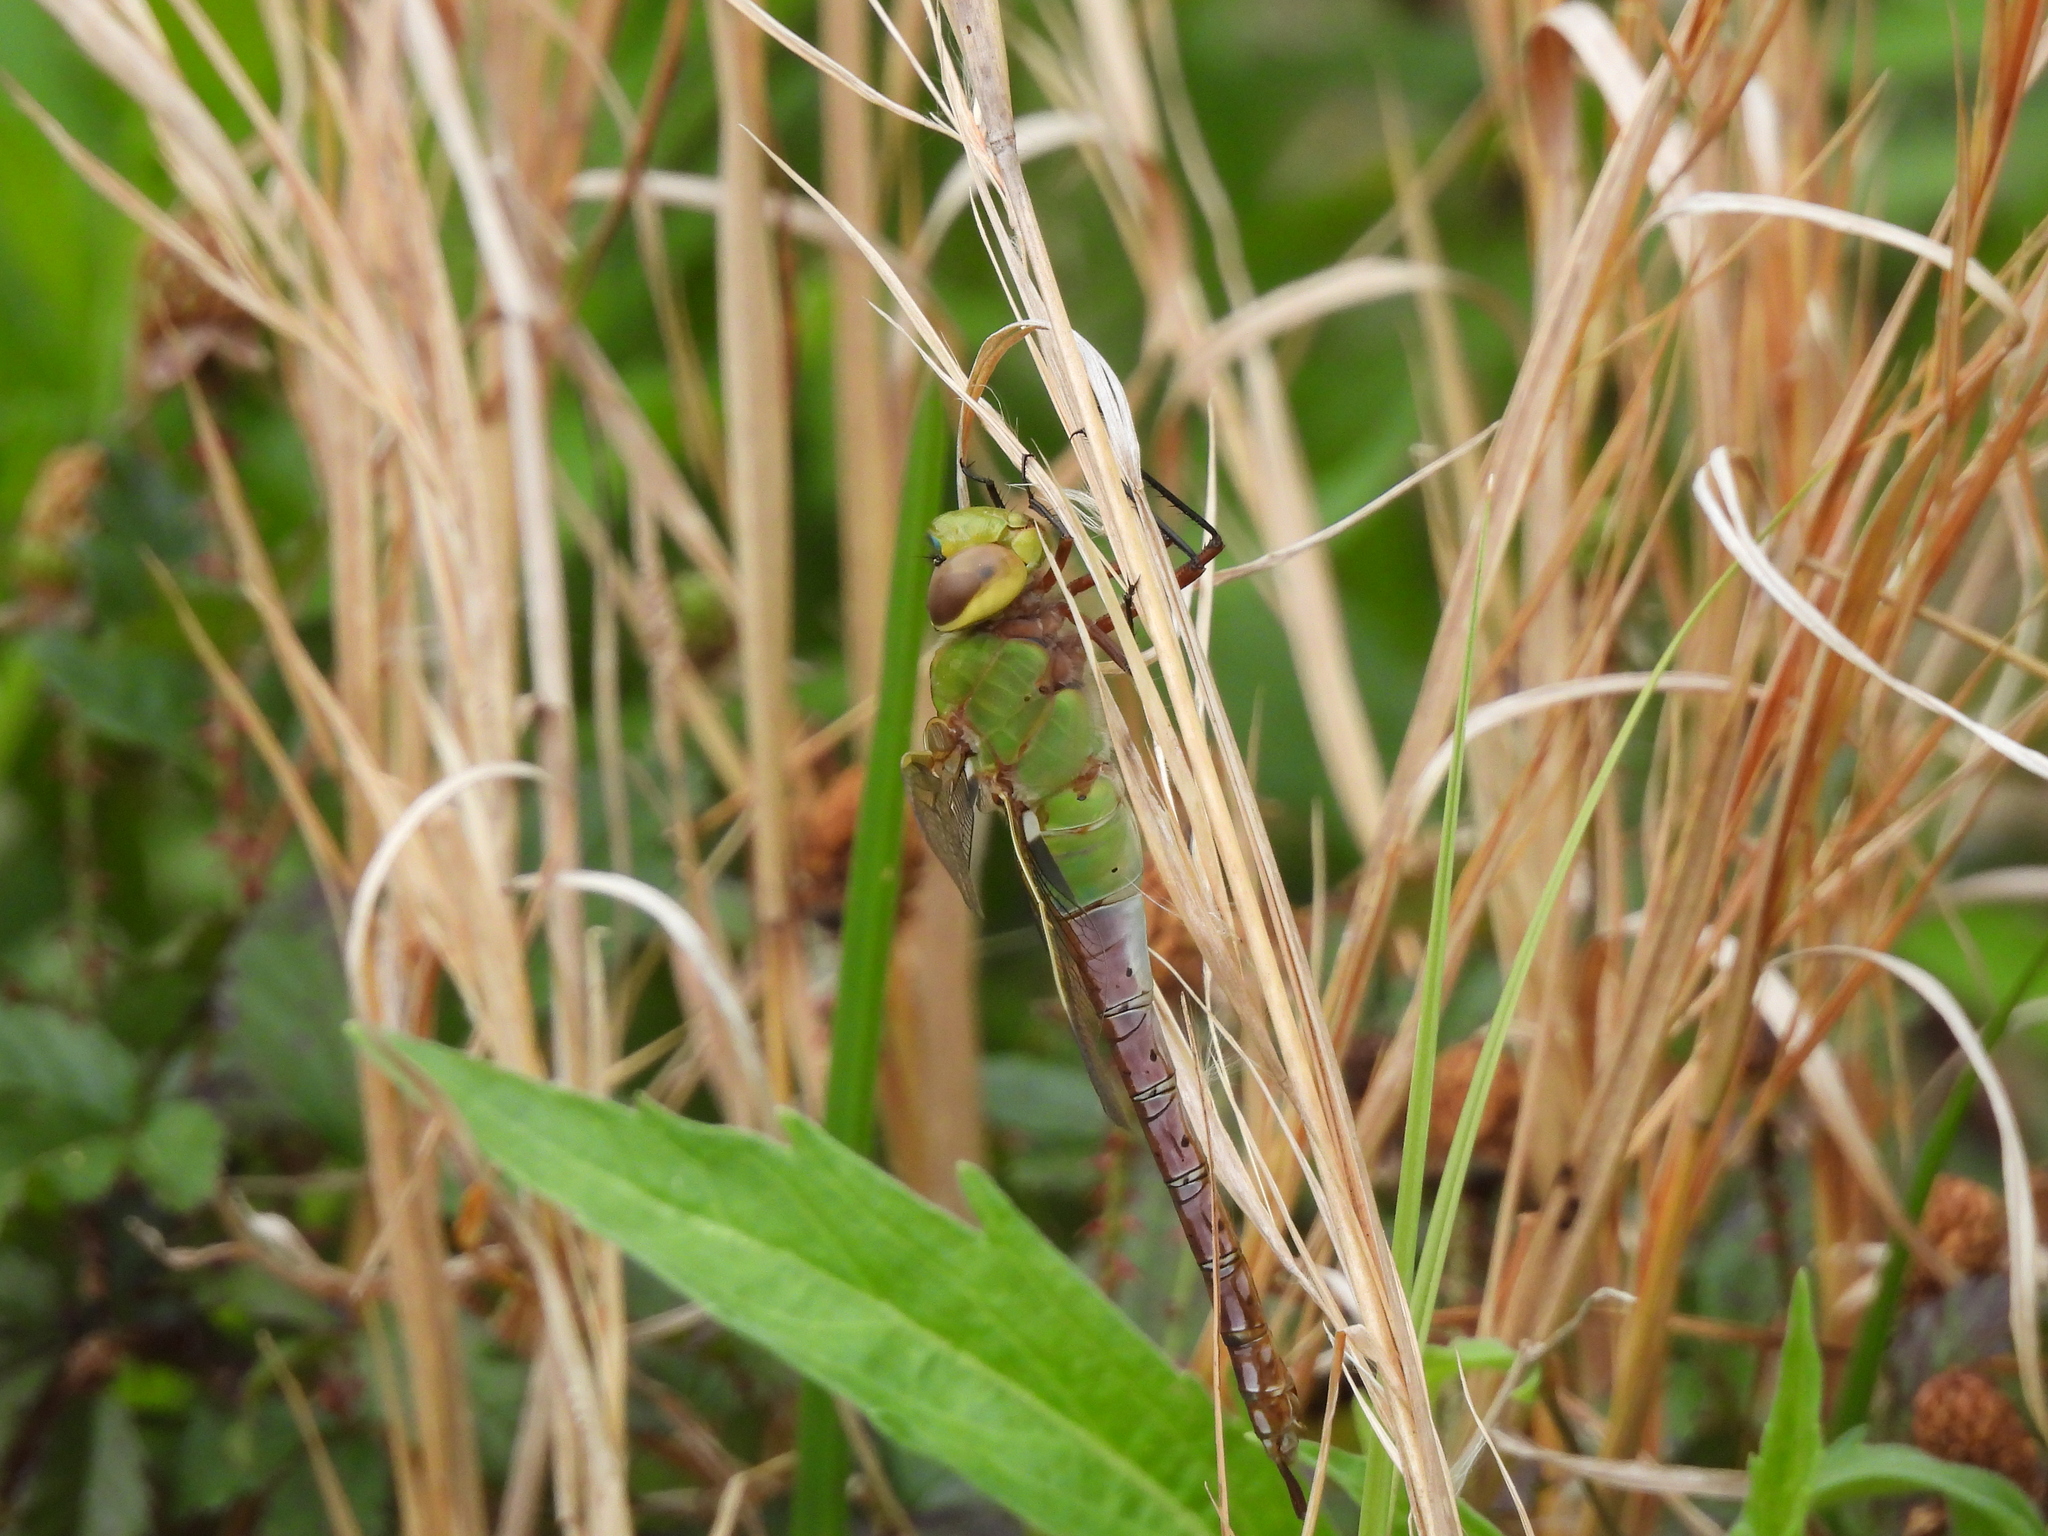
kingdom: Animalia
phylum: Arthropoda
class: Insecta
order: Odonata
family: Aeshnidae
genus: Anax
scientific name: Anax junius
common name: Common green darner
